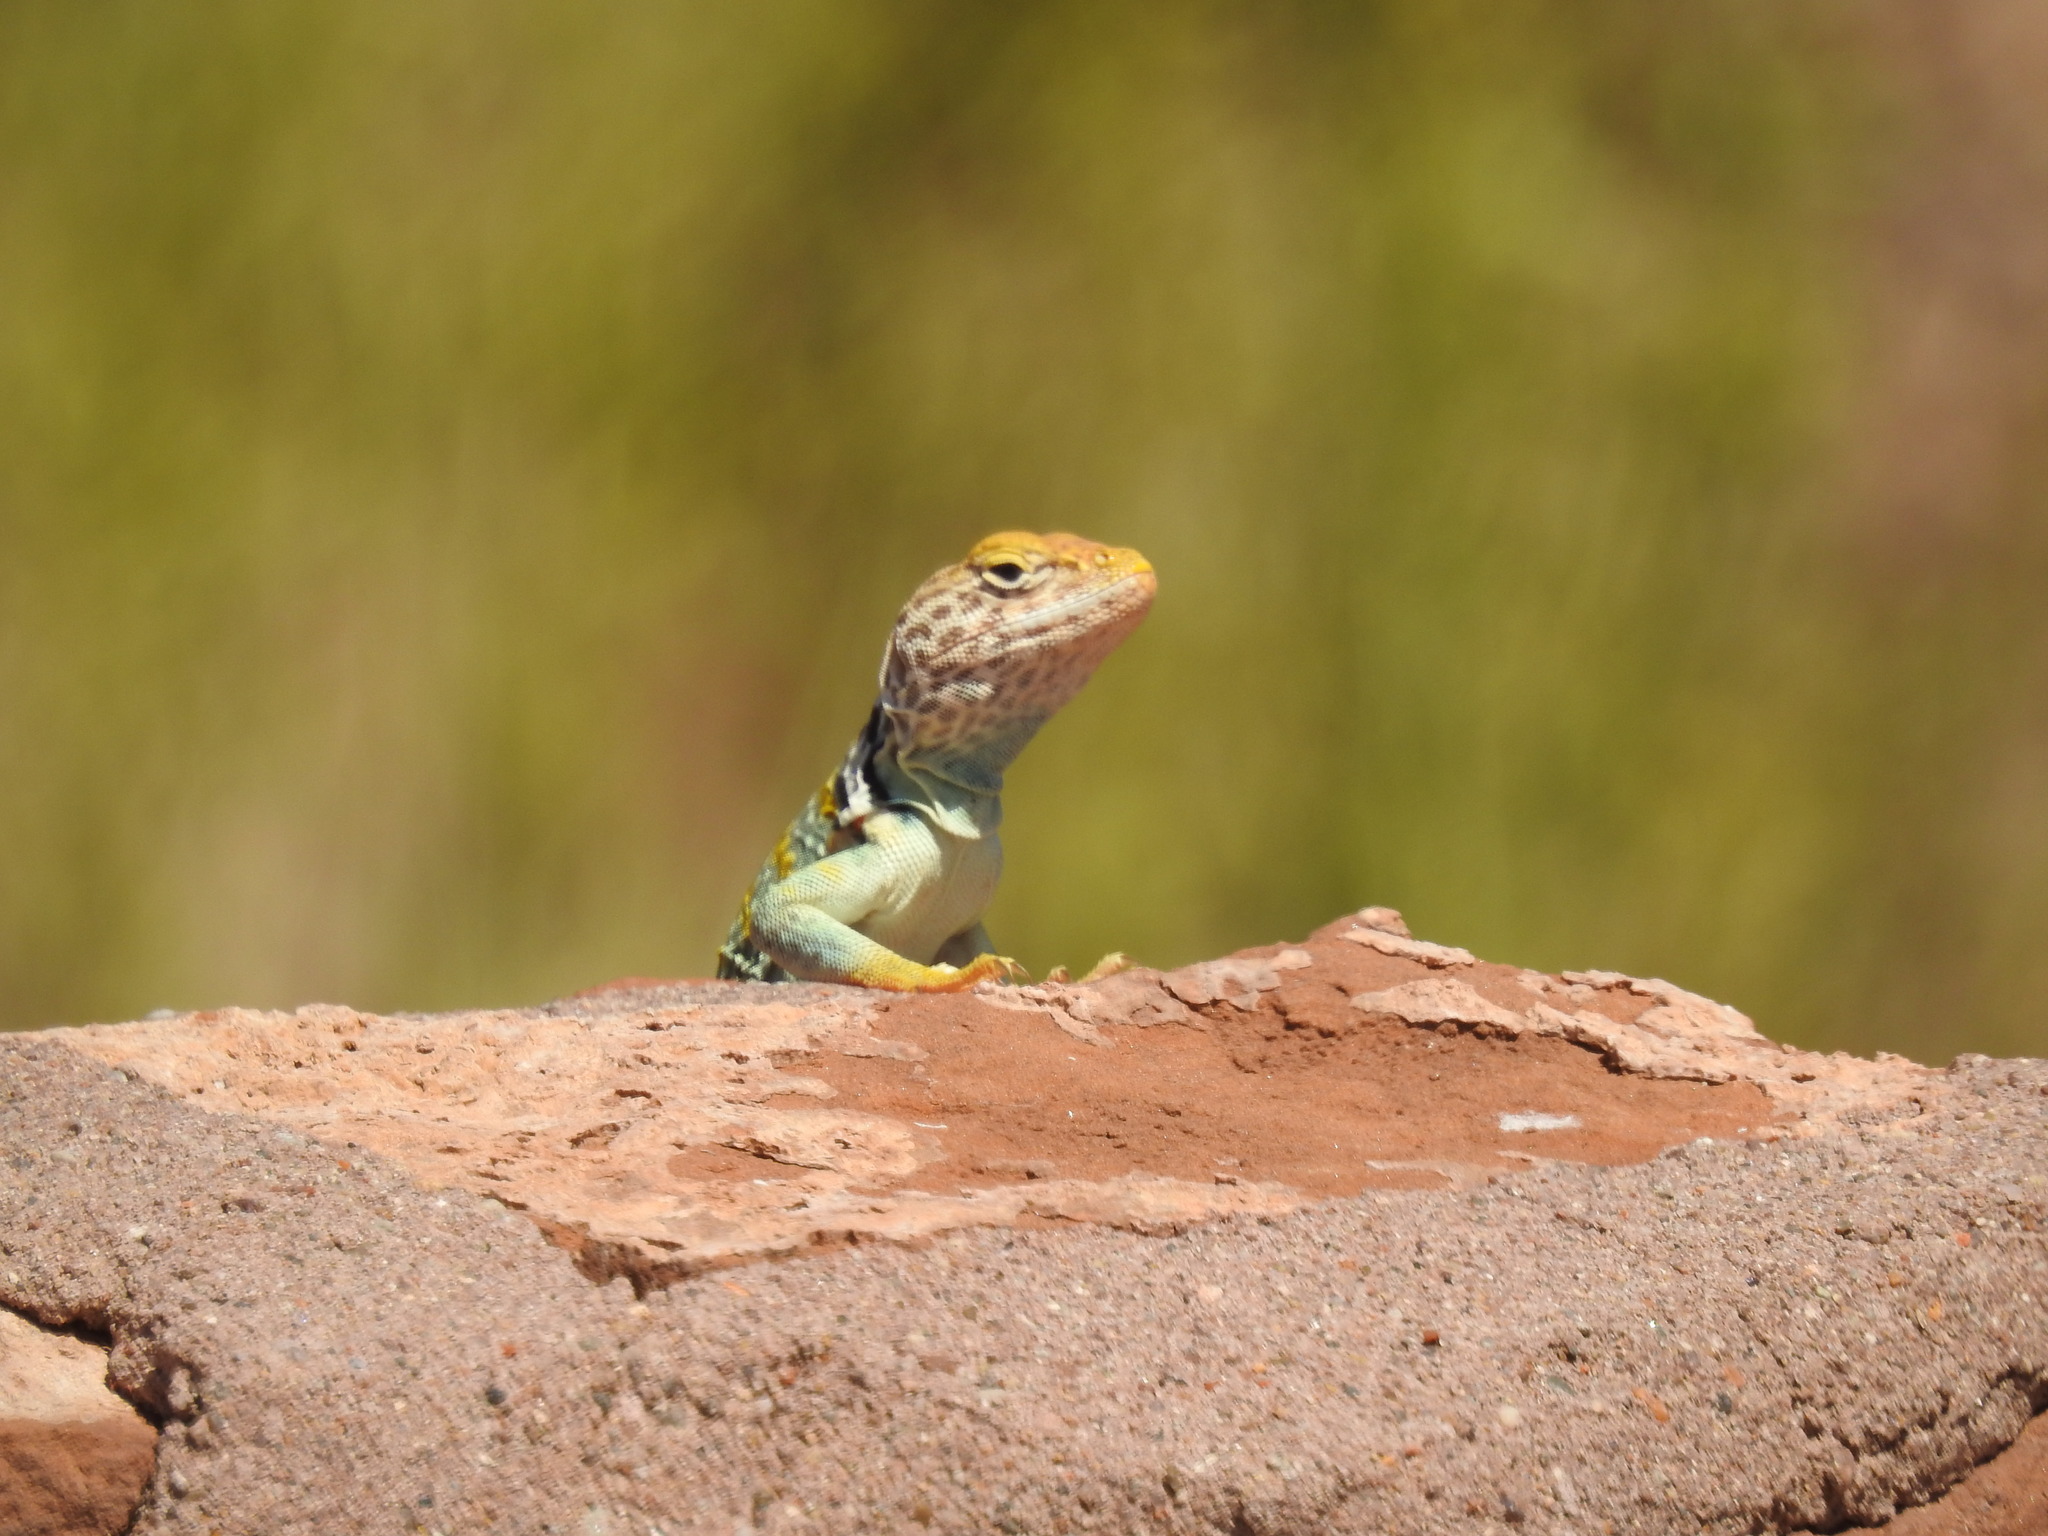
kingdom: Animalia
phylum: Chordata
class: Squamata
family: Crotaphytidae
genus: Crotaphytus
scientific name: Crotaphytus collaris
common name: Collared lizard
